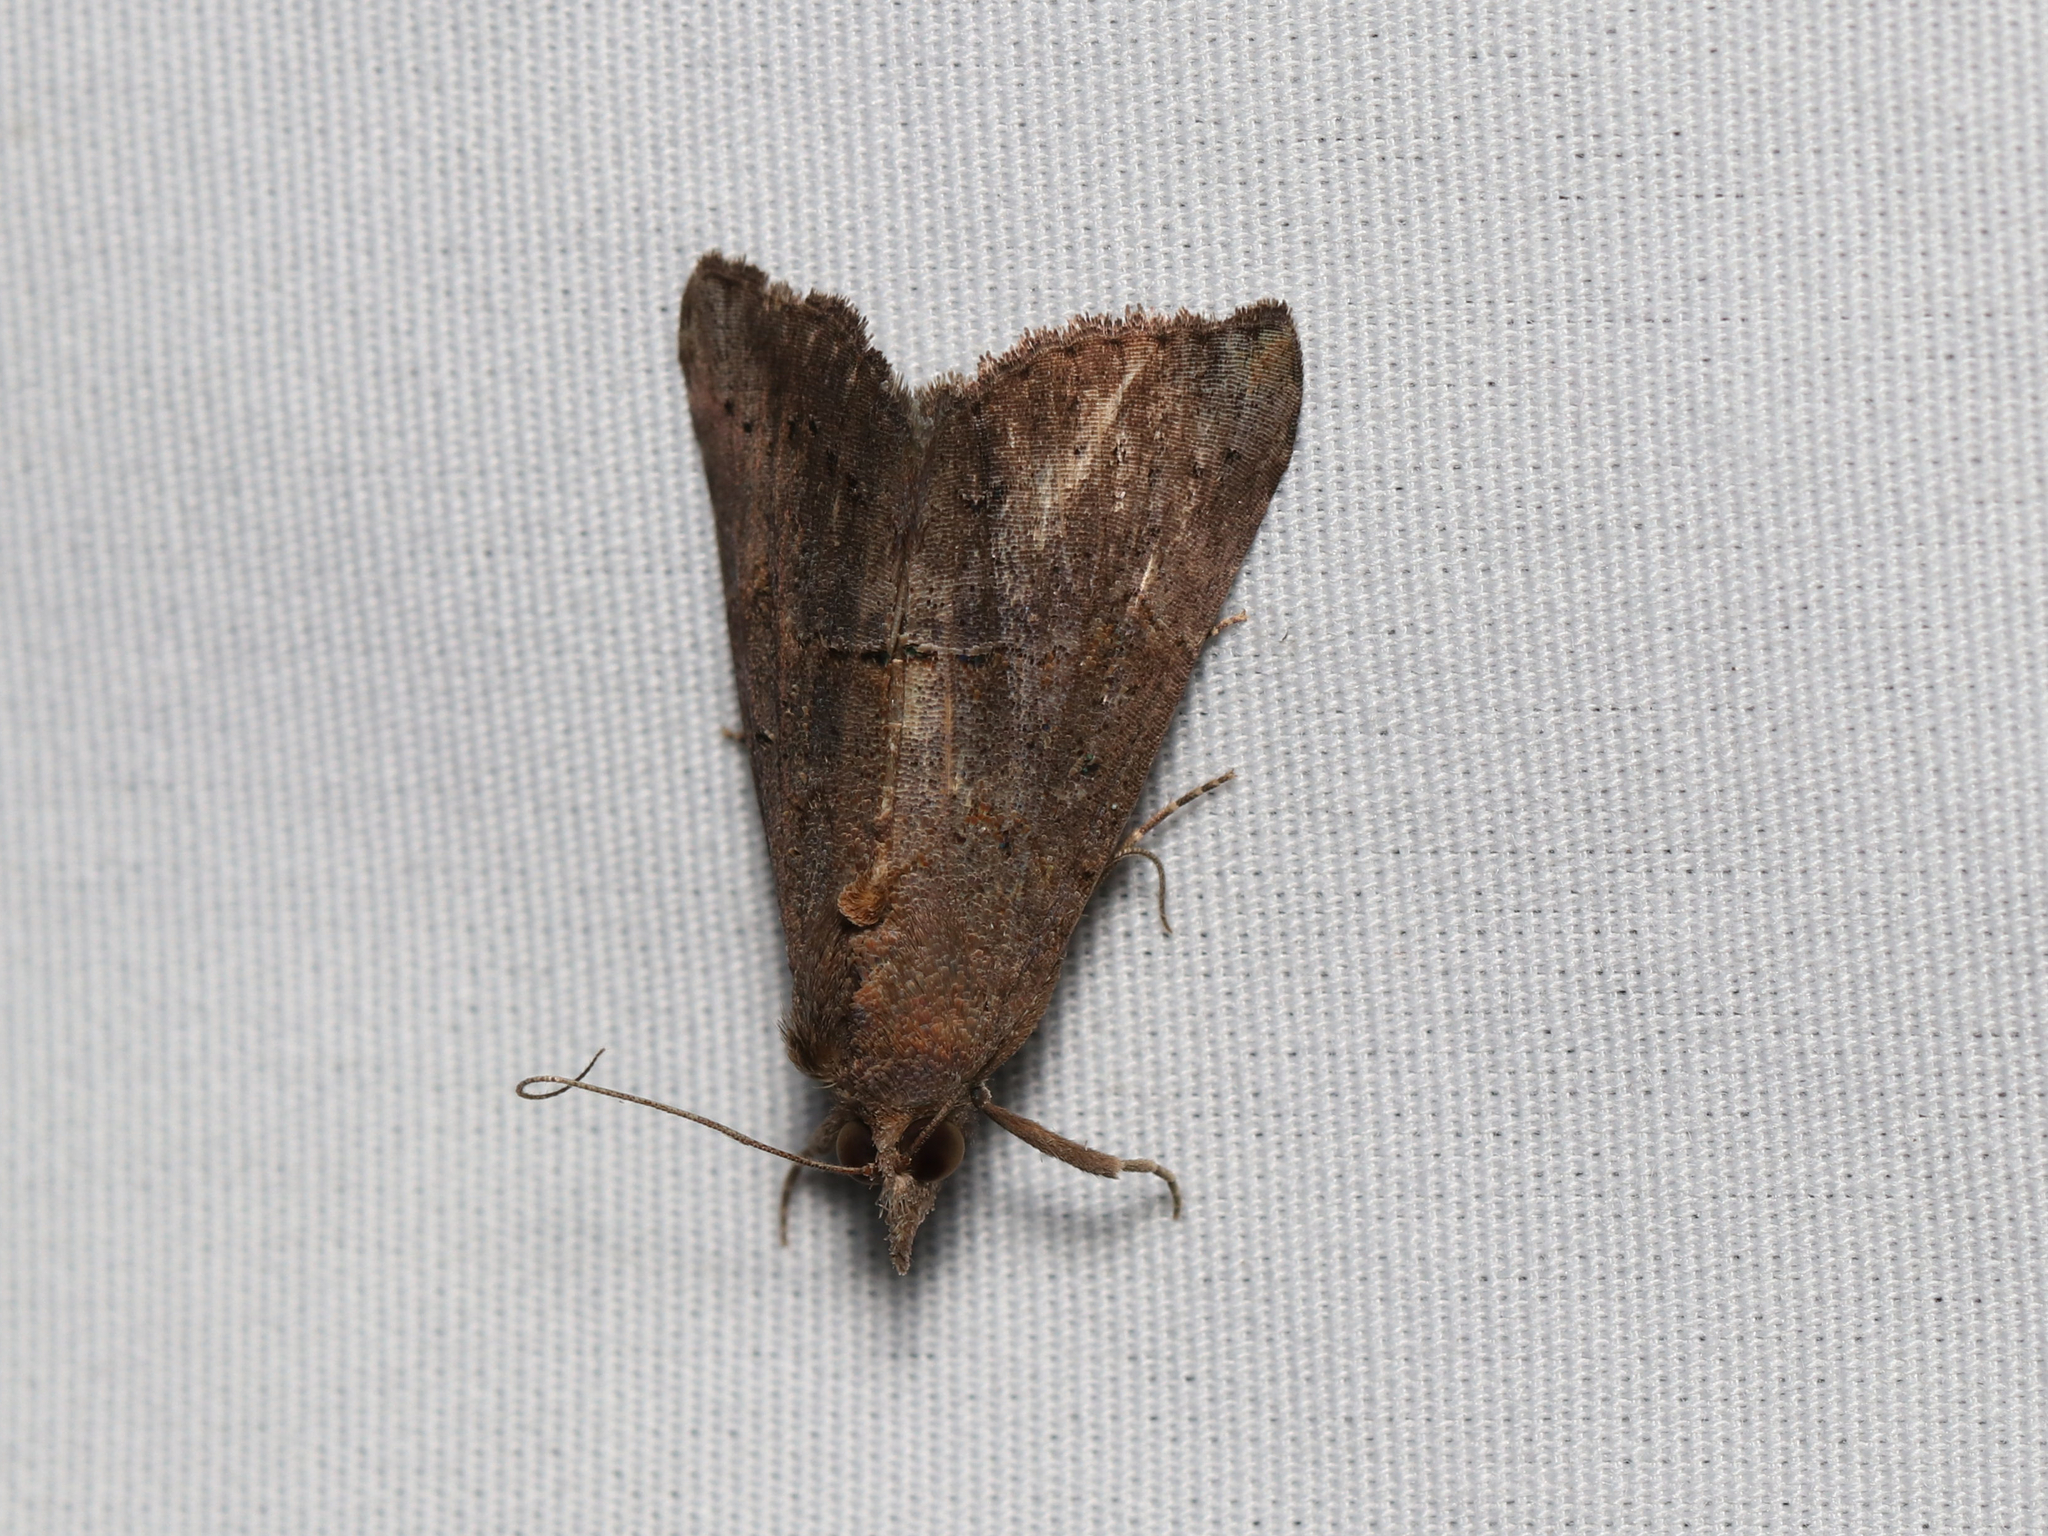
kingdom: Animalia
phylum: Arthropoda
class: Insecta
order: Lepidoptera
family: Erebidae
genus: Hypena
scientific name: Hypena scabra
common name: Green cloverworm
